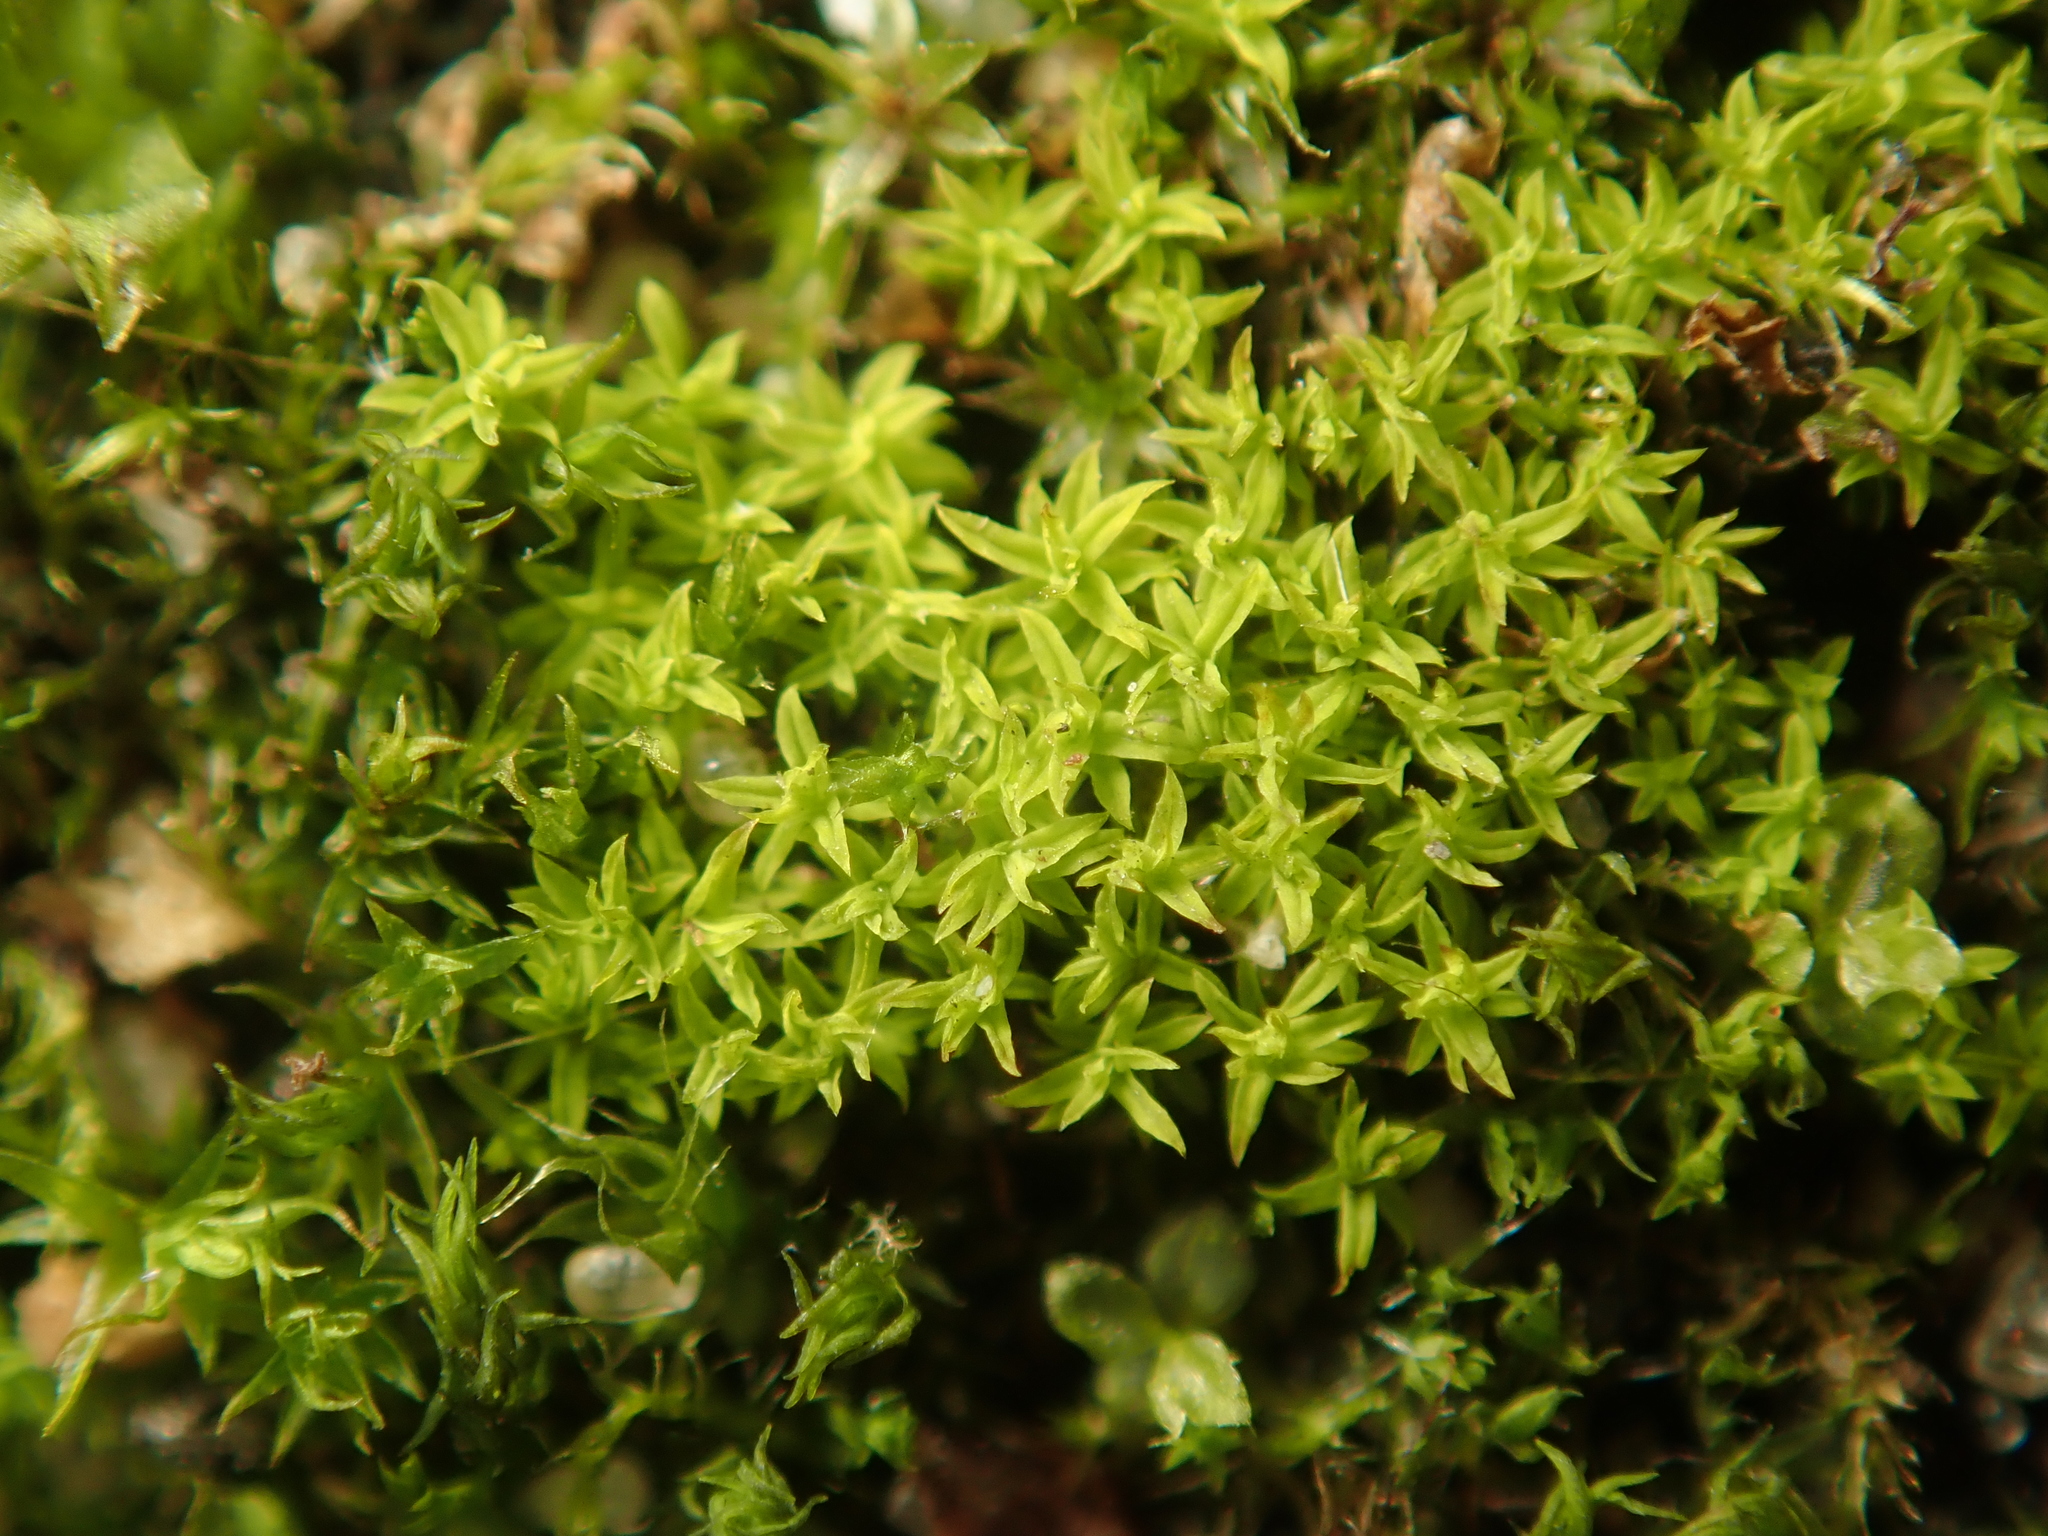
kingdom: Plantae
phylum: Bryophyta
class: Bryopsida
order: Pottiales
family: Pottiaceae
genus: Barbula
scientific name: Barbula unguiculata
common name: Prickly beard moss
